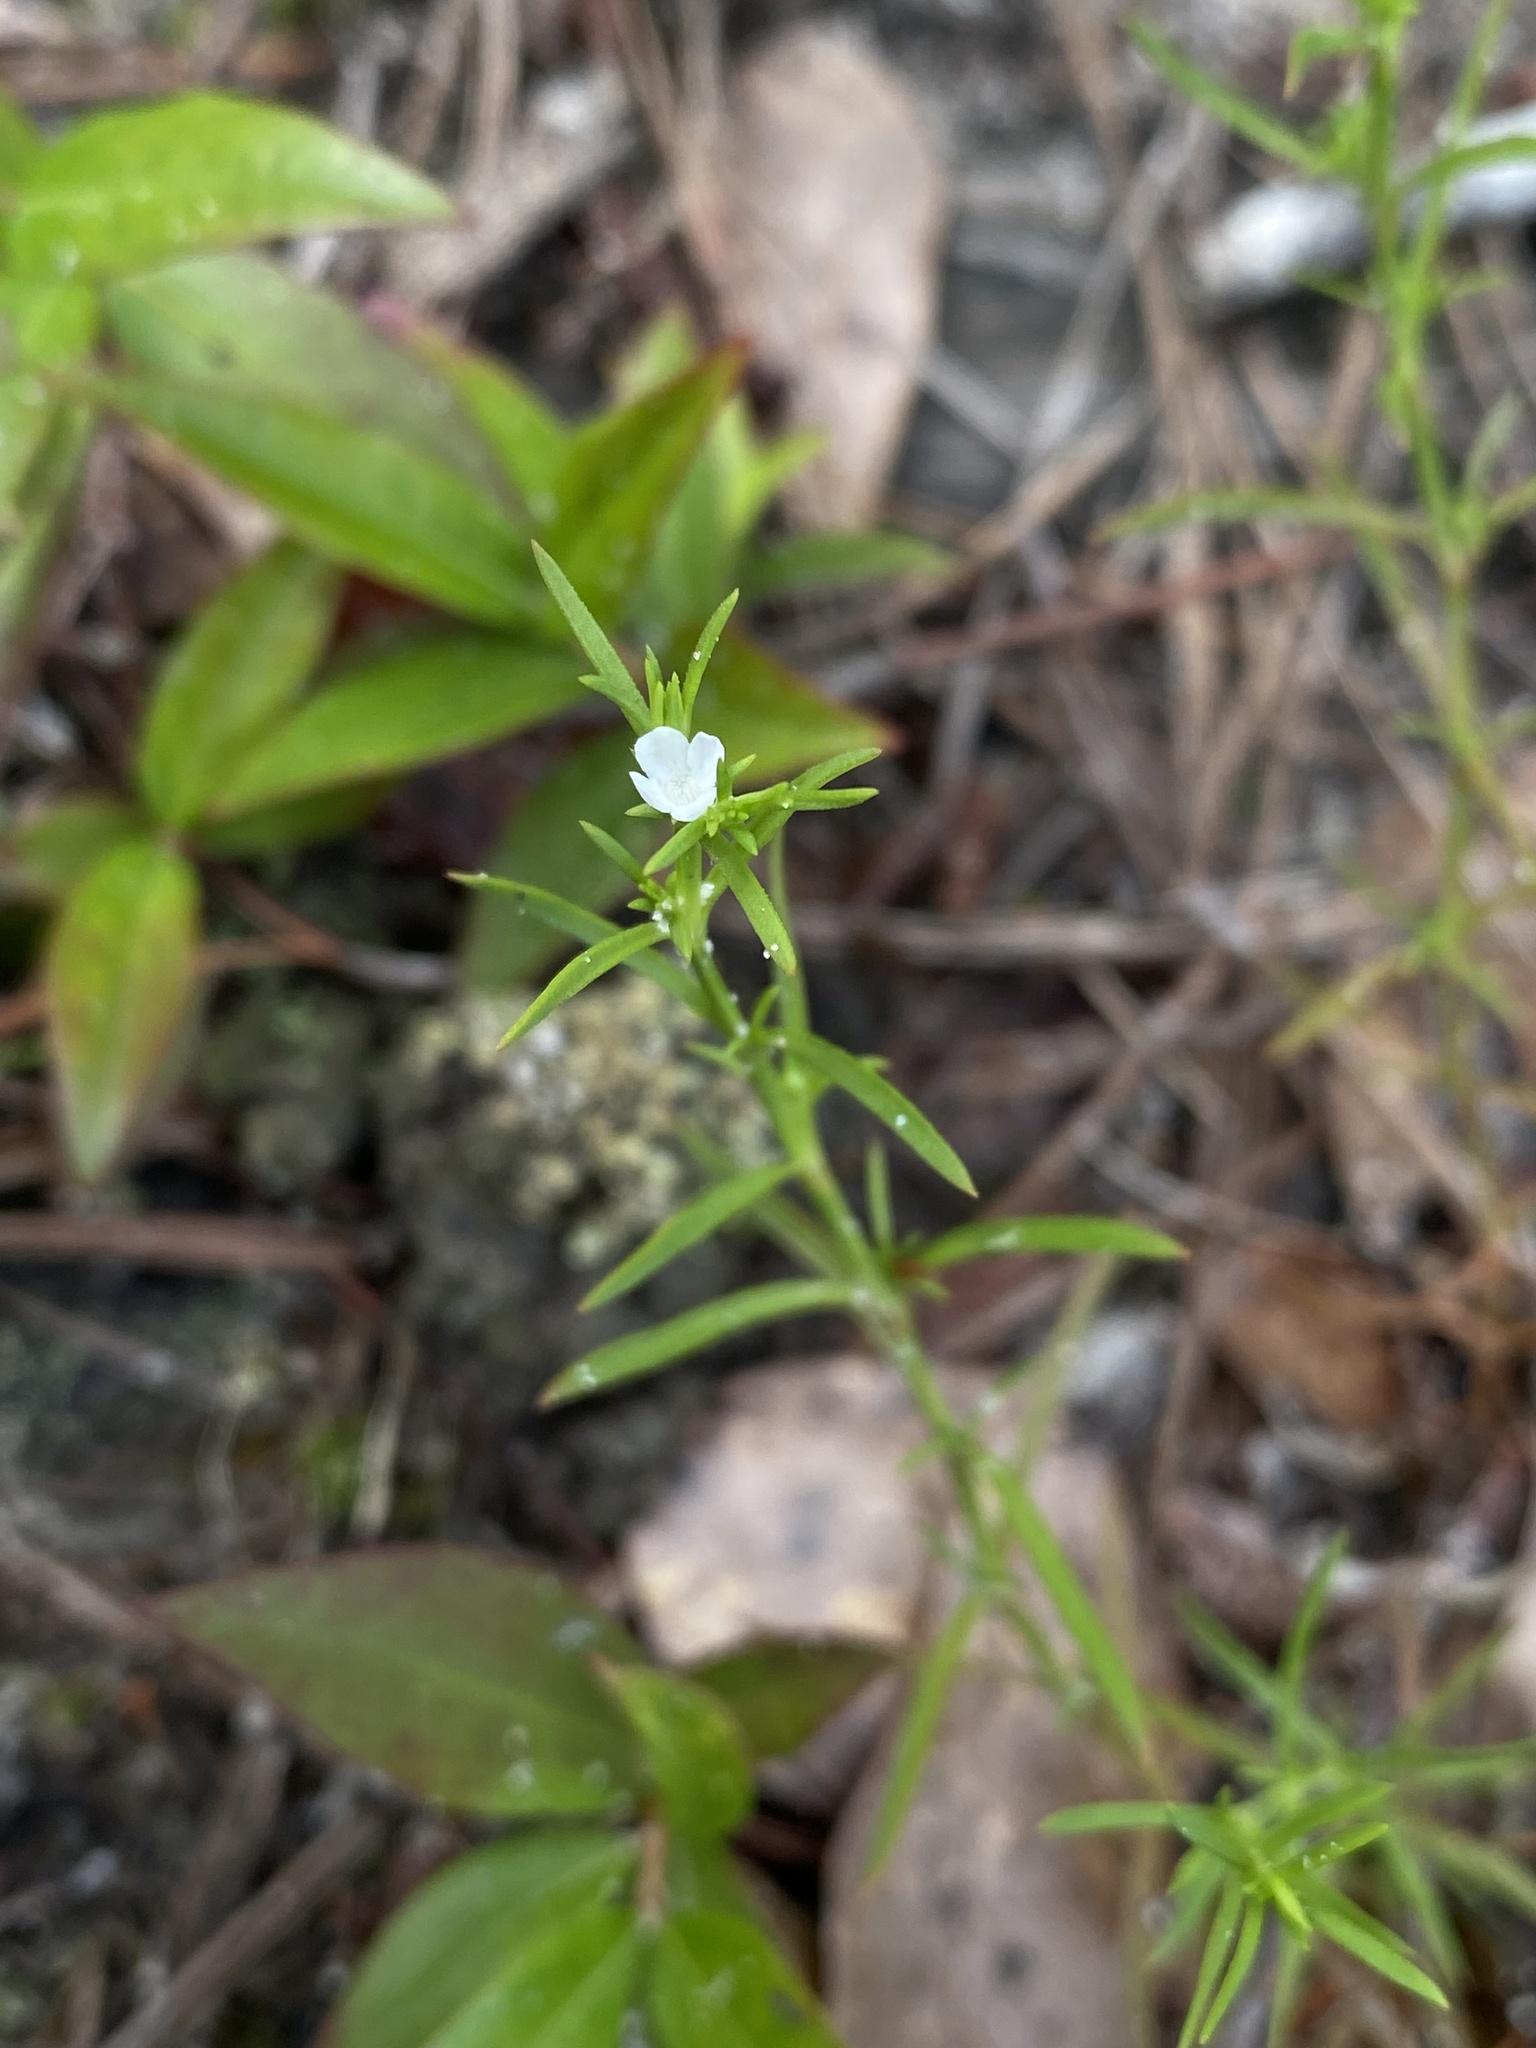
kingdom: Plantae
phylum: Tracheophyta
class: Magnoliopsida
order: Lamiales
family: Tetrachondraceae
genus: Polypremum
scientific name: Polypremum procumbens
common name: Juniper-leaf
